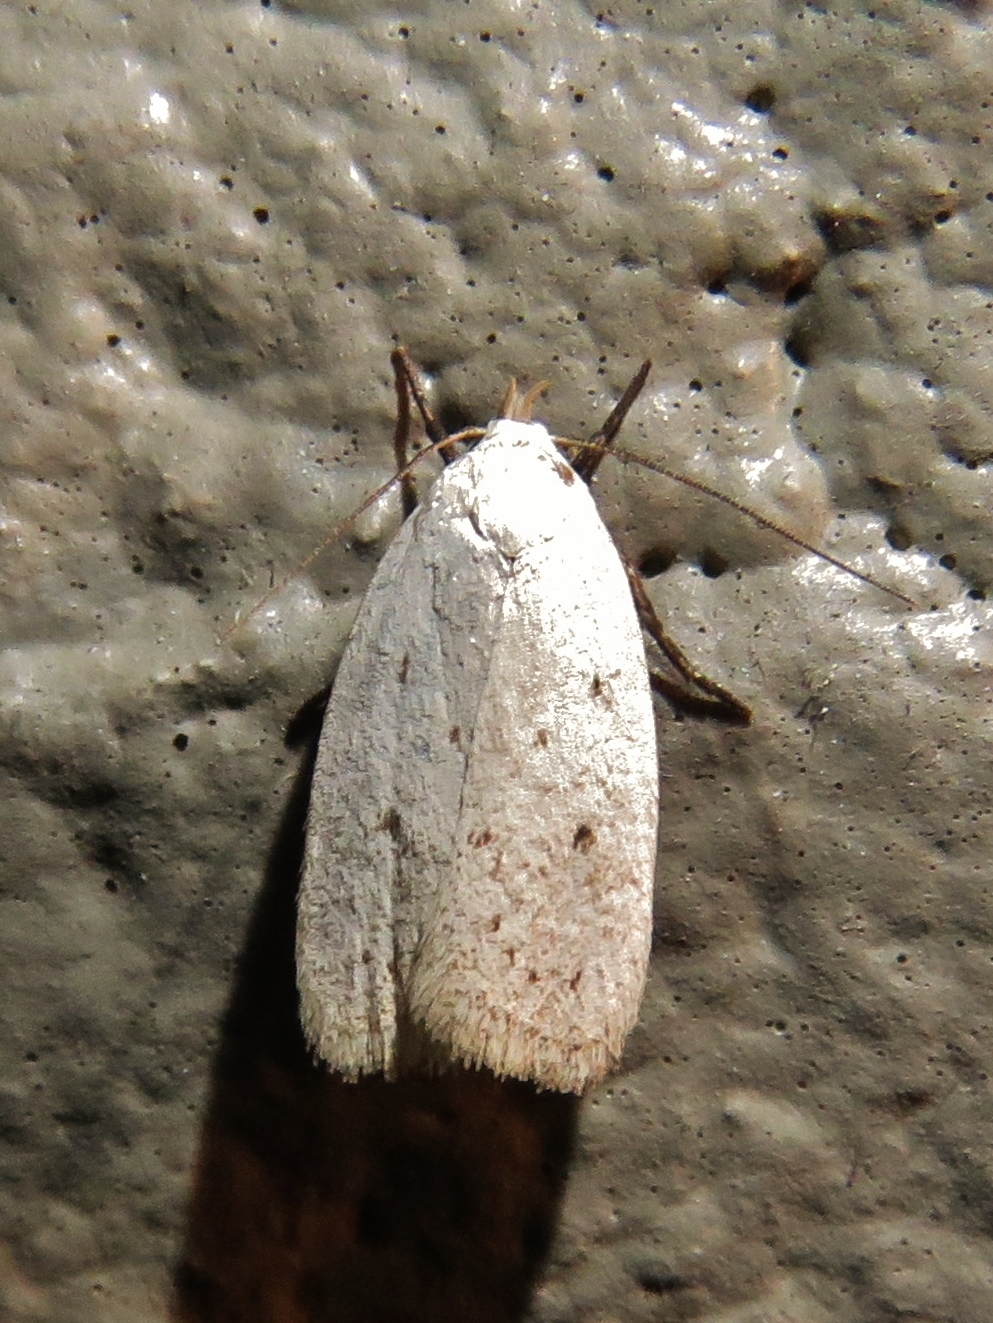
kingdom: Animalia
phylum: Arthropoda
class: Insecta
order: Lepidoptera
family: Oecophoridae
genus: Inga
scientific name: Inga cretacea
